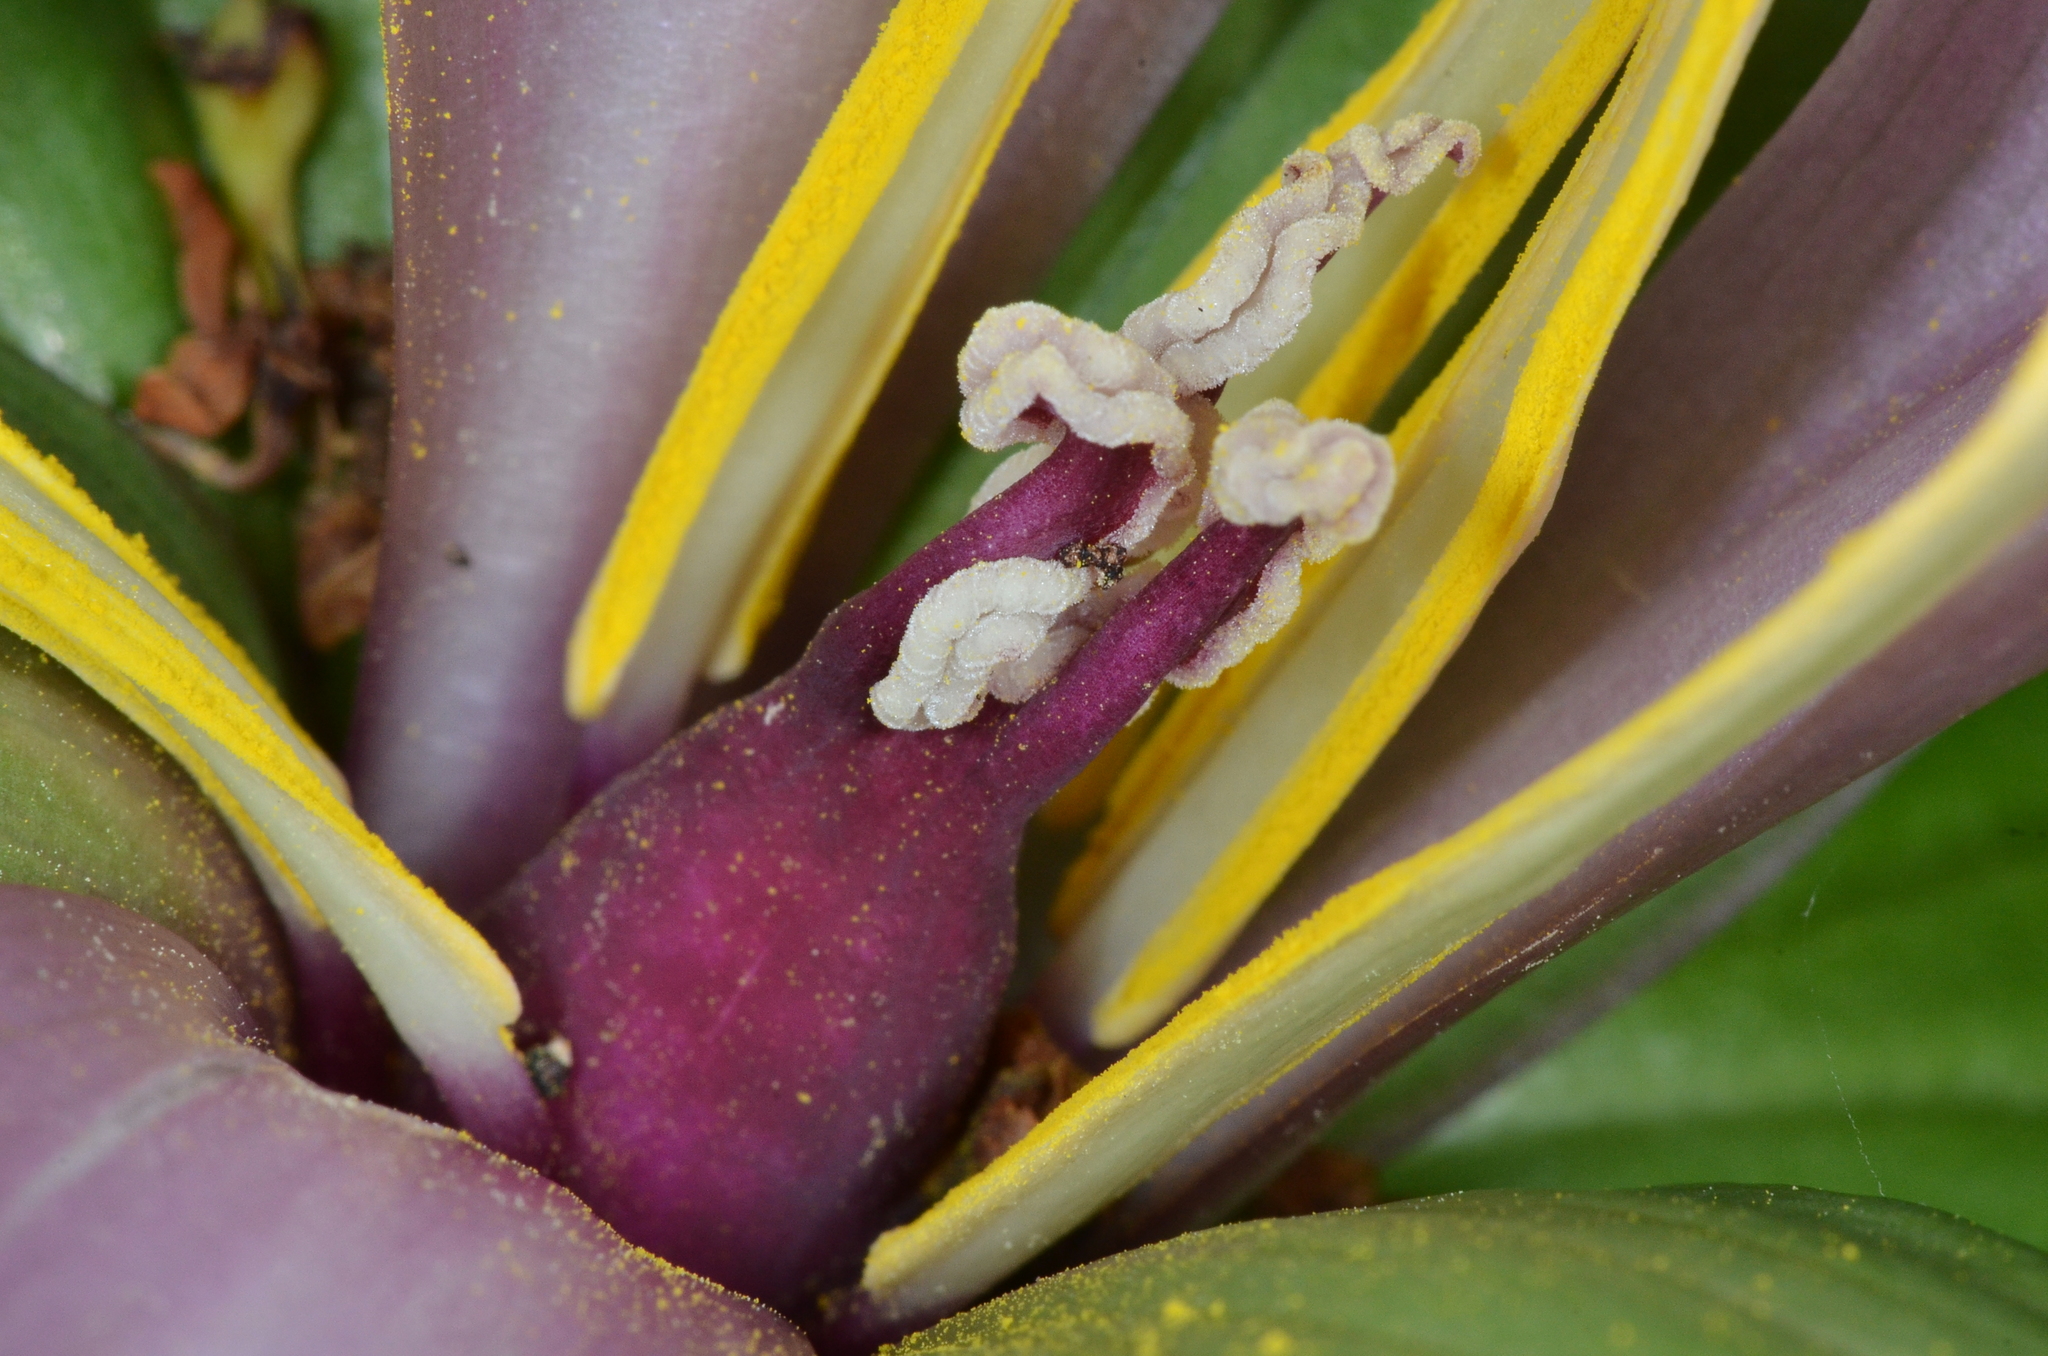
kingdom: Plantae
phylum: Tracheophyta
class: Liliopsida
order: Liliales
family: Melanthiaceae
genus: Trillium
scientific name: Trillium chloropetalum
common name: Giant trillium
